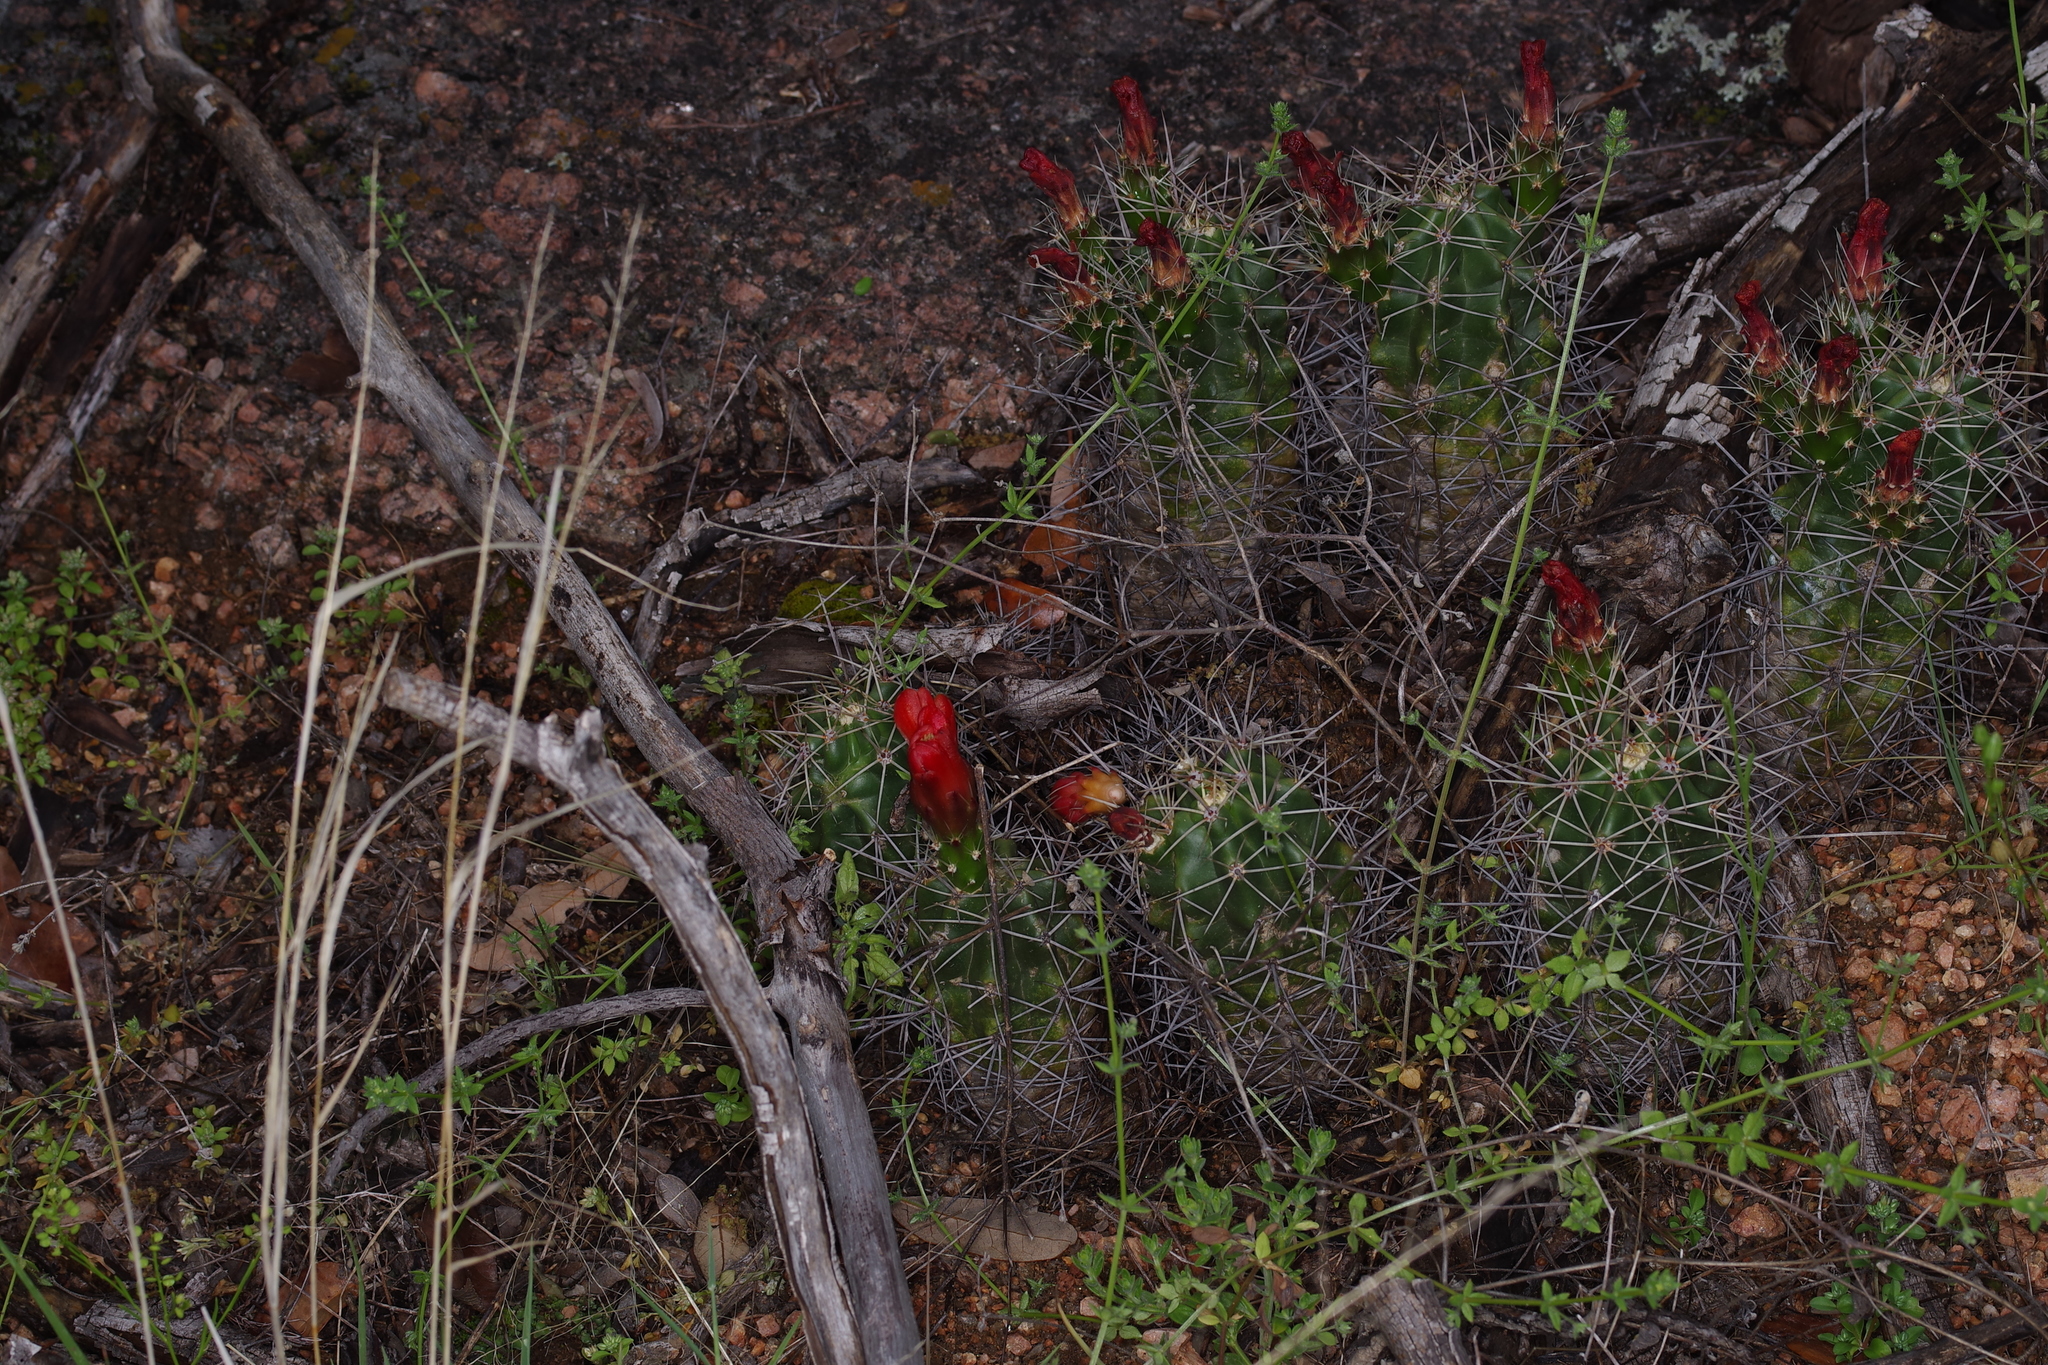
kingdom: Plantae
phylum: Tracheophyta
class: Magnoliopsida
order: Caryophyllales
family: Cactaceae
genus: Echinocereus
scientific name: Echinocereus coccineus
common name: Scarlet hedgehog cactus
